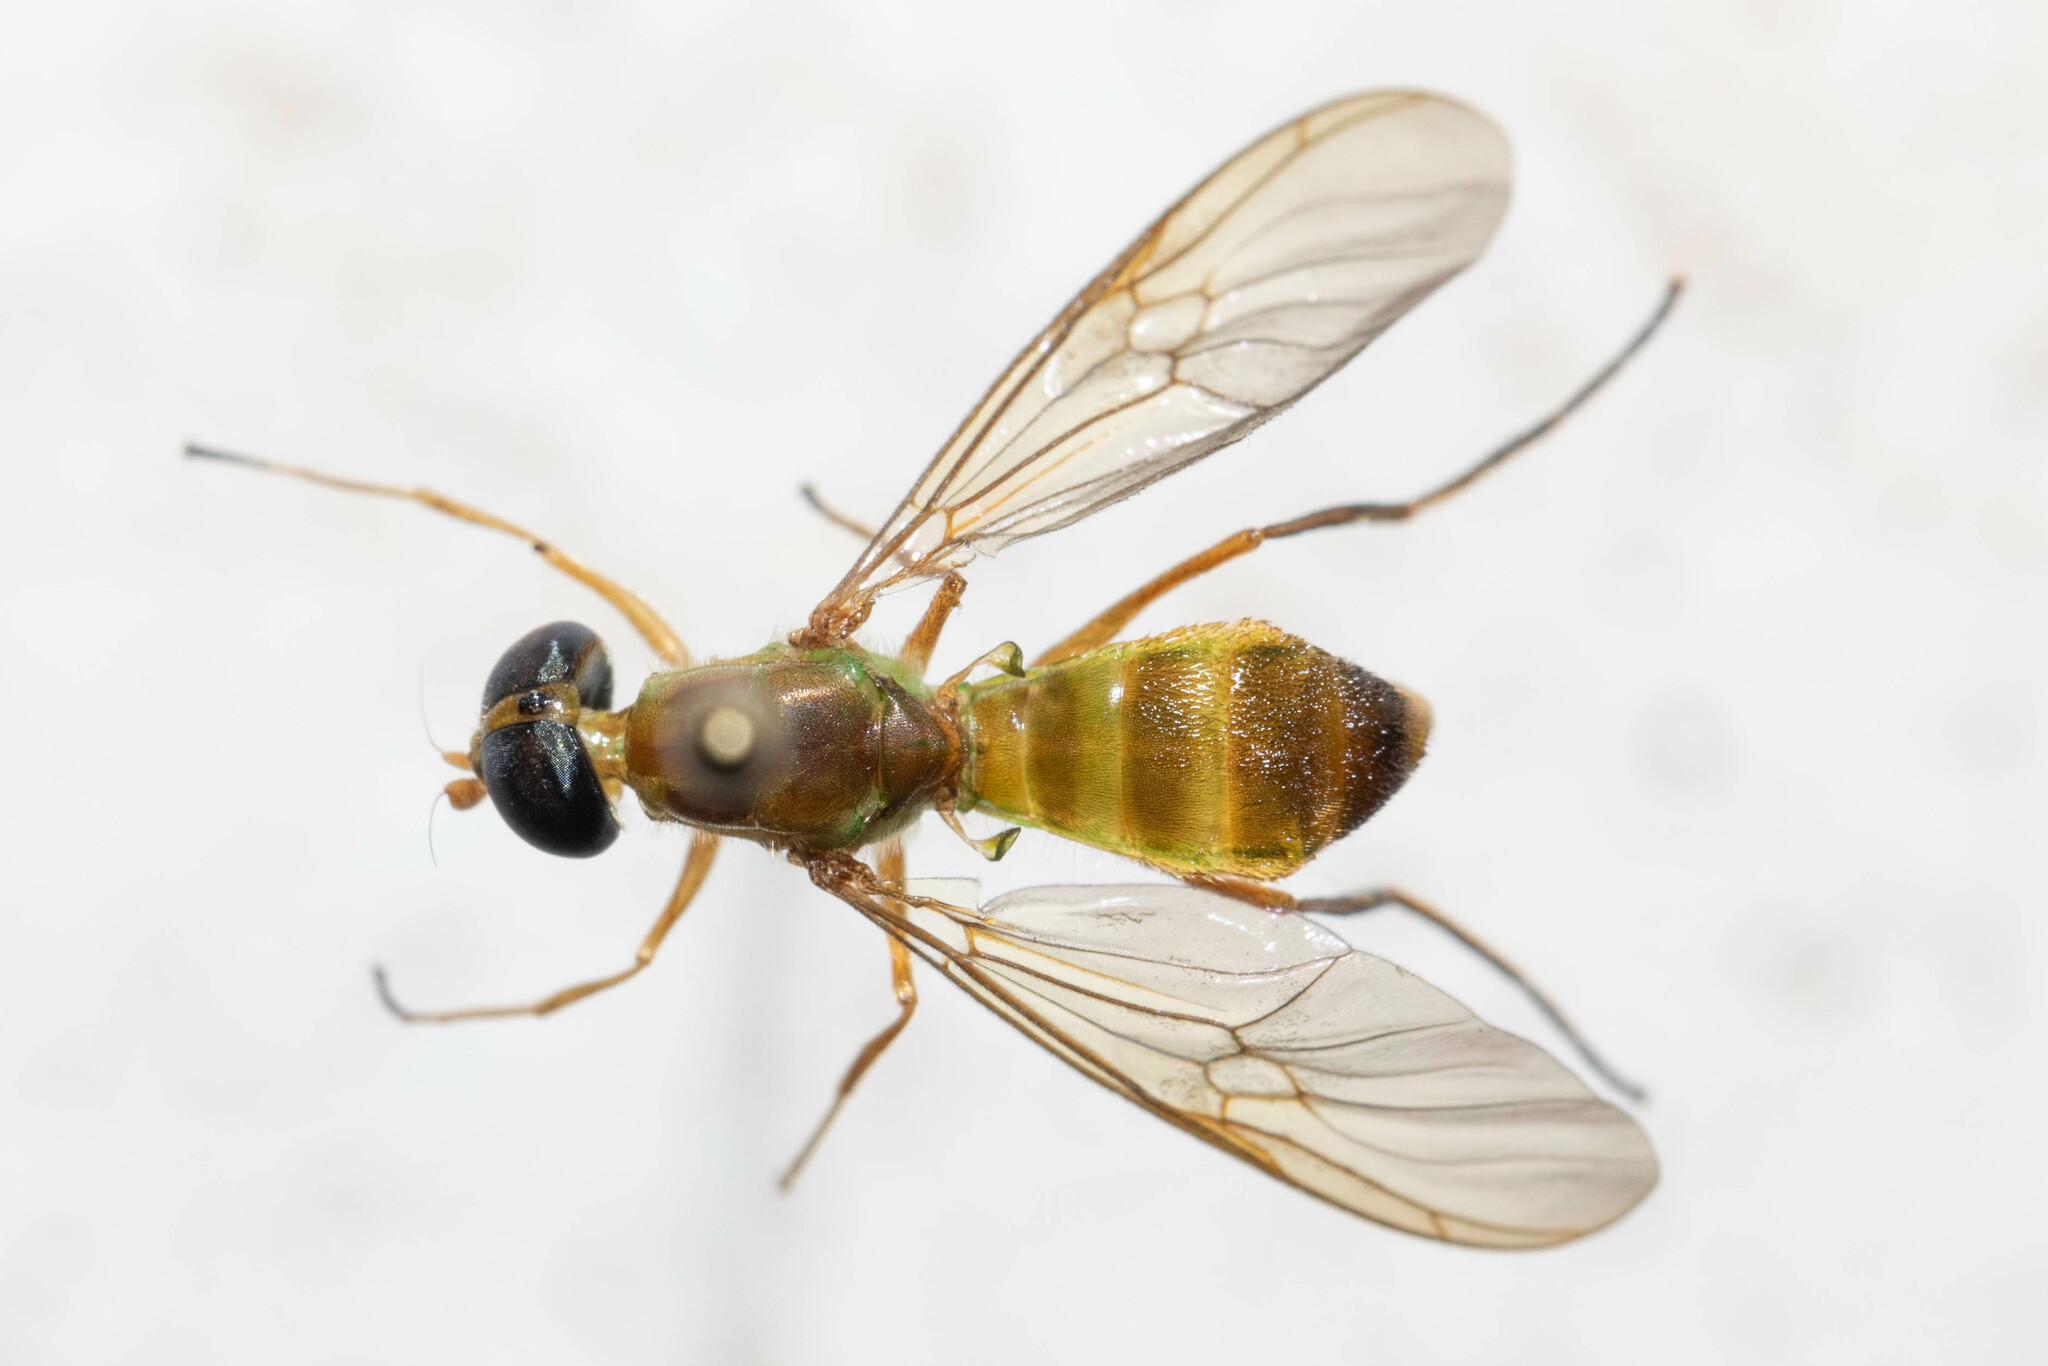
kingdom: Animalia
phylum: Arthropoda
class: Insecta
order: Diptera
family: Stratiomyidae
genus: Ptecticus
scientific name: Ptecticus trivittatus
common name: Compost fly
